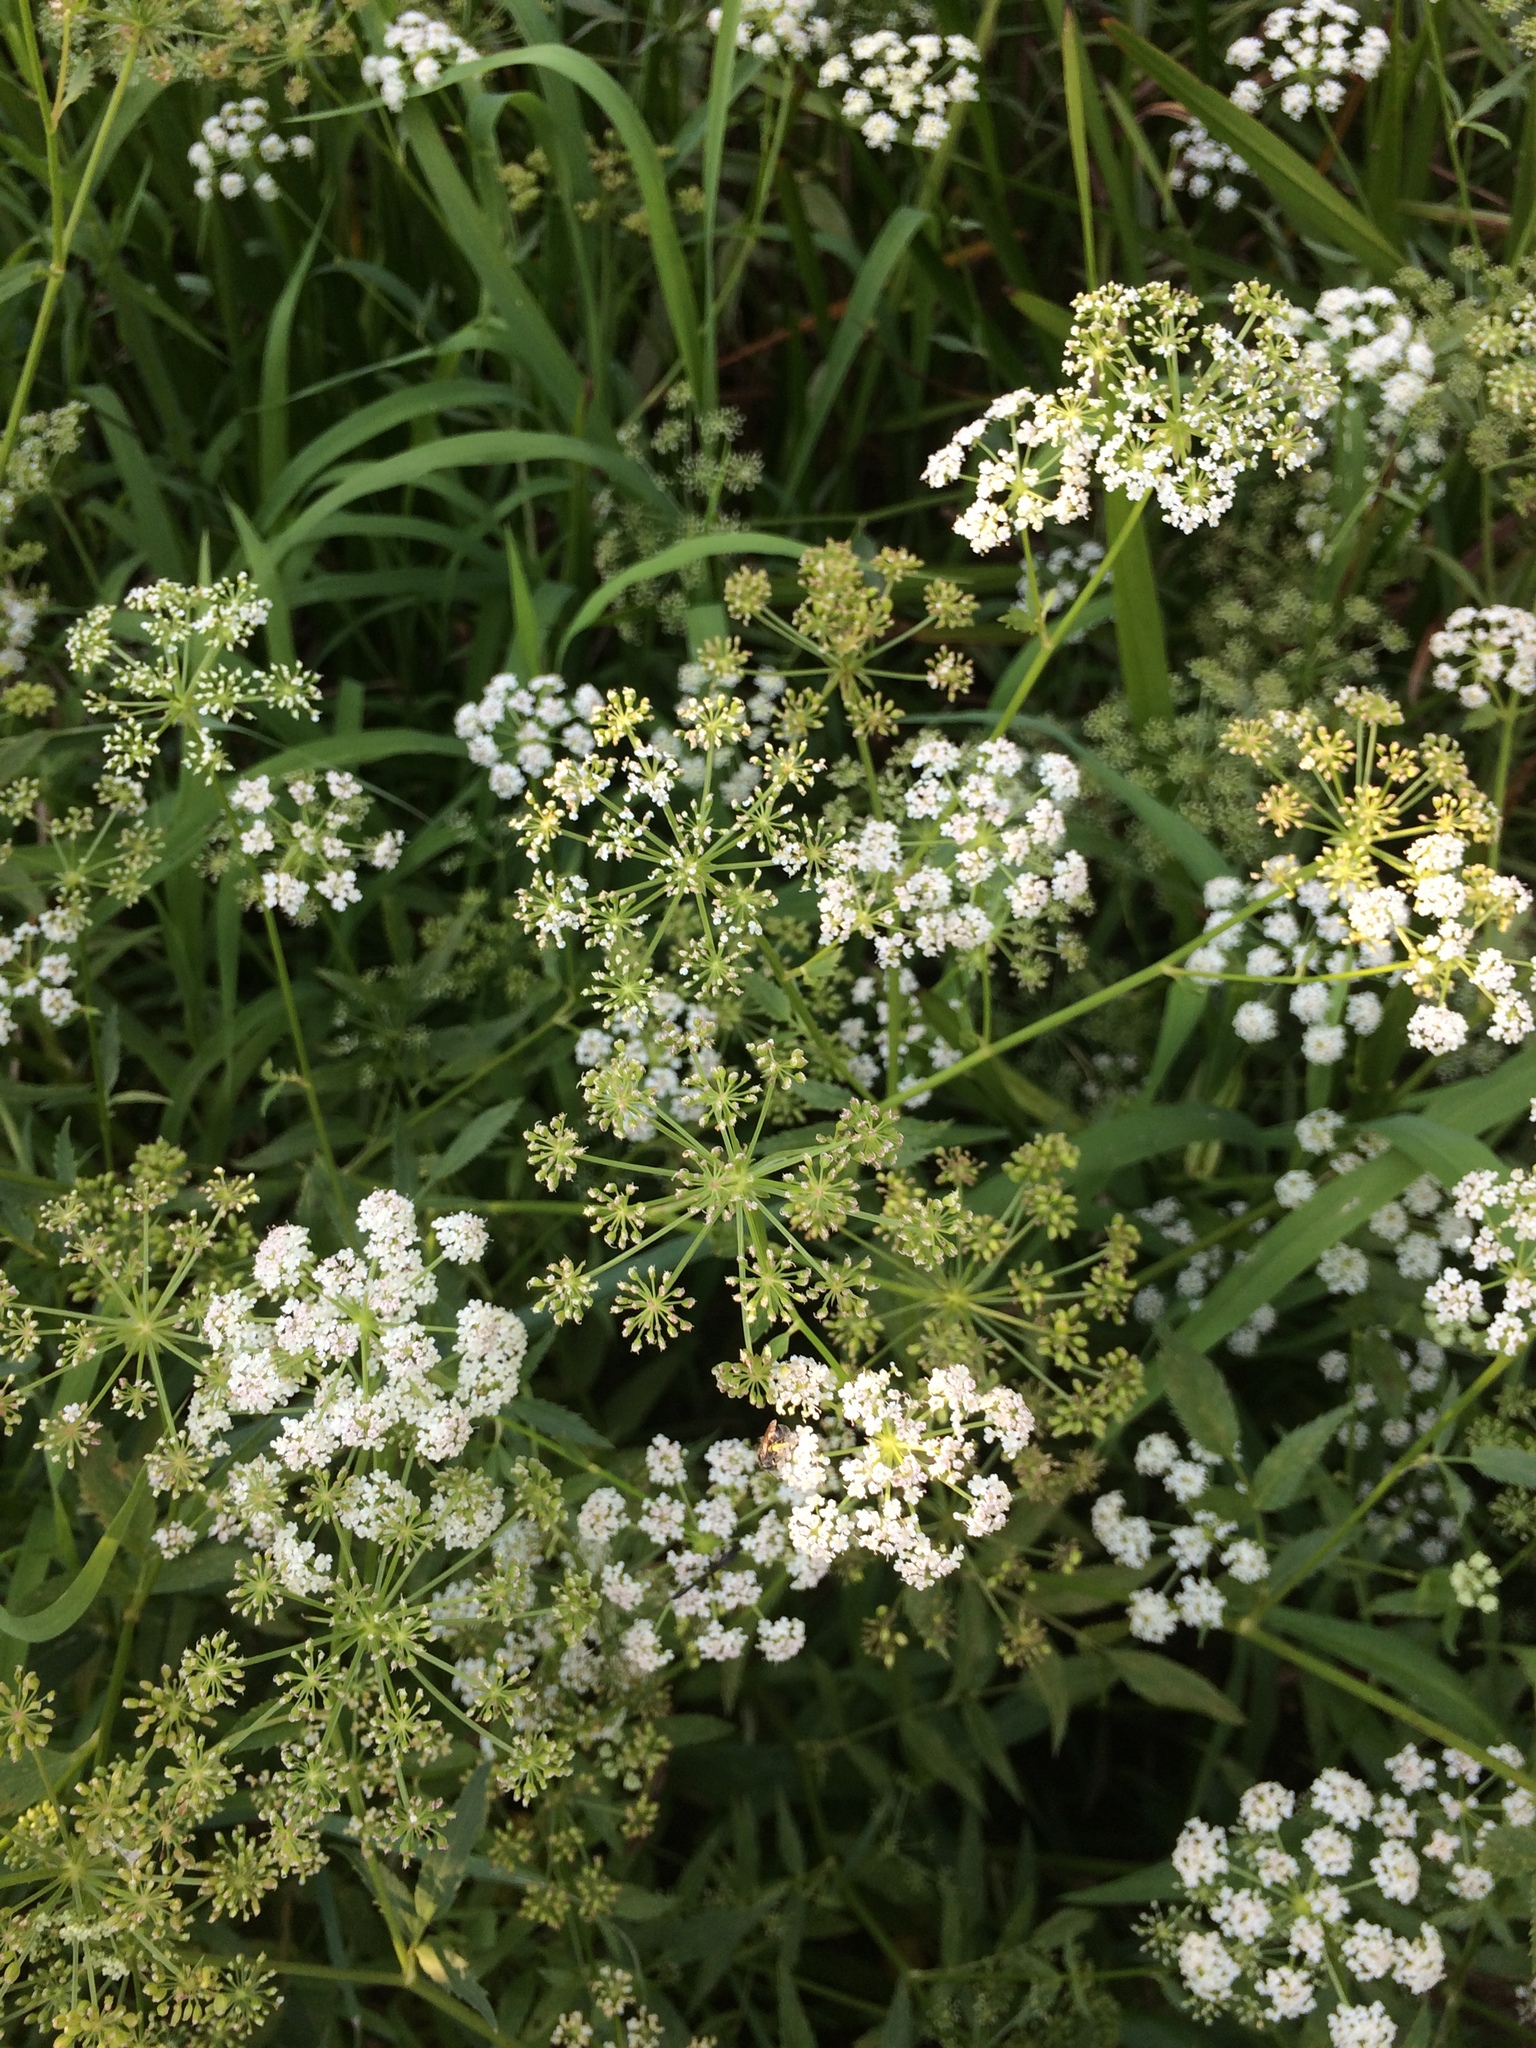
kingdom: Plantae
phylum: Tracheophyta
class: Magnoliopsida
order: Apiales
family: Apiaceae
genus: Cicuta
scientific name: Cicuta maculata
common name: Spotted cowbane
